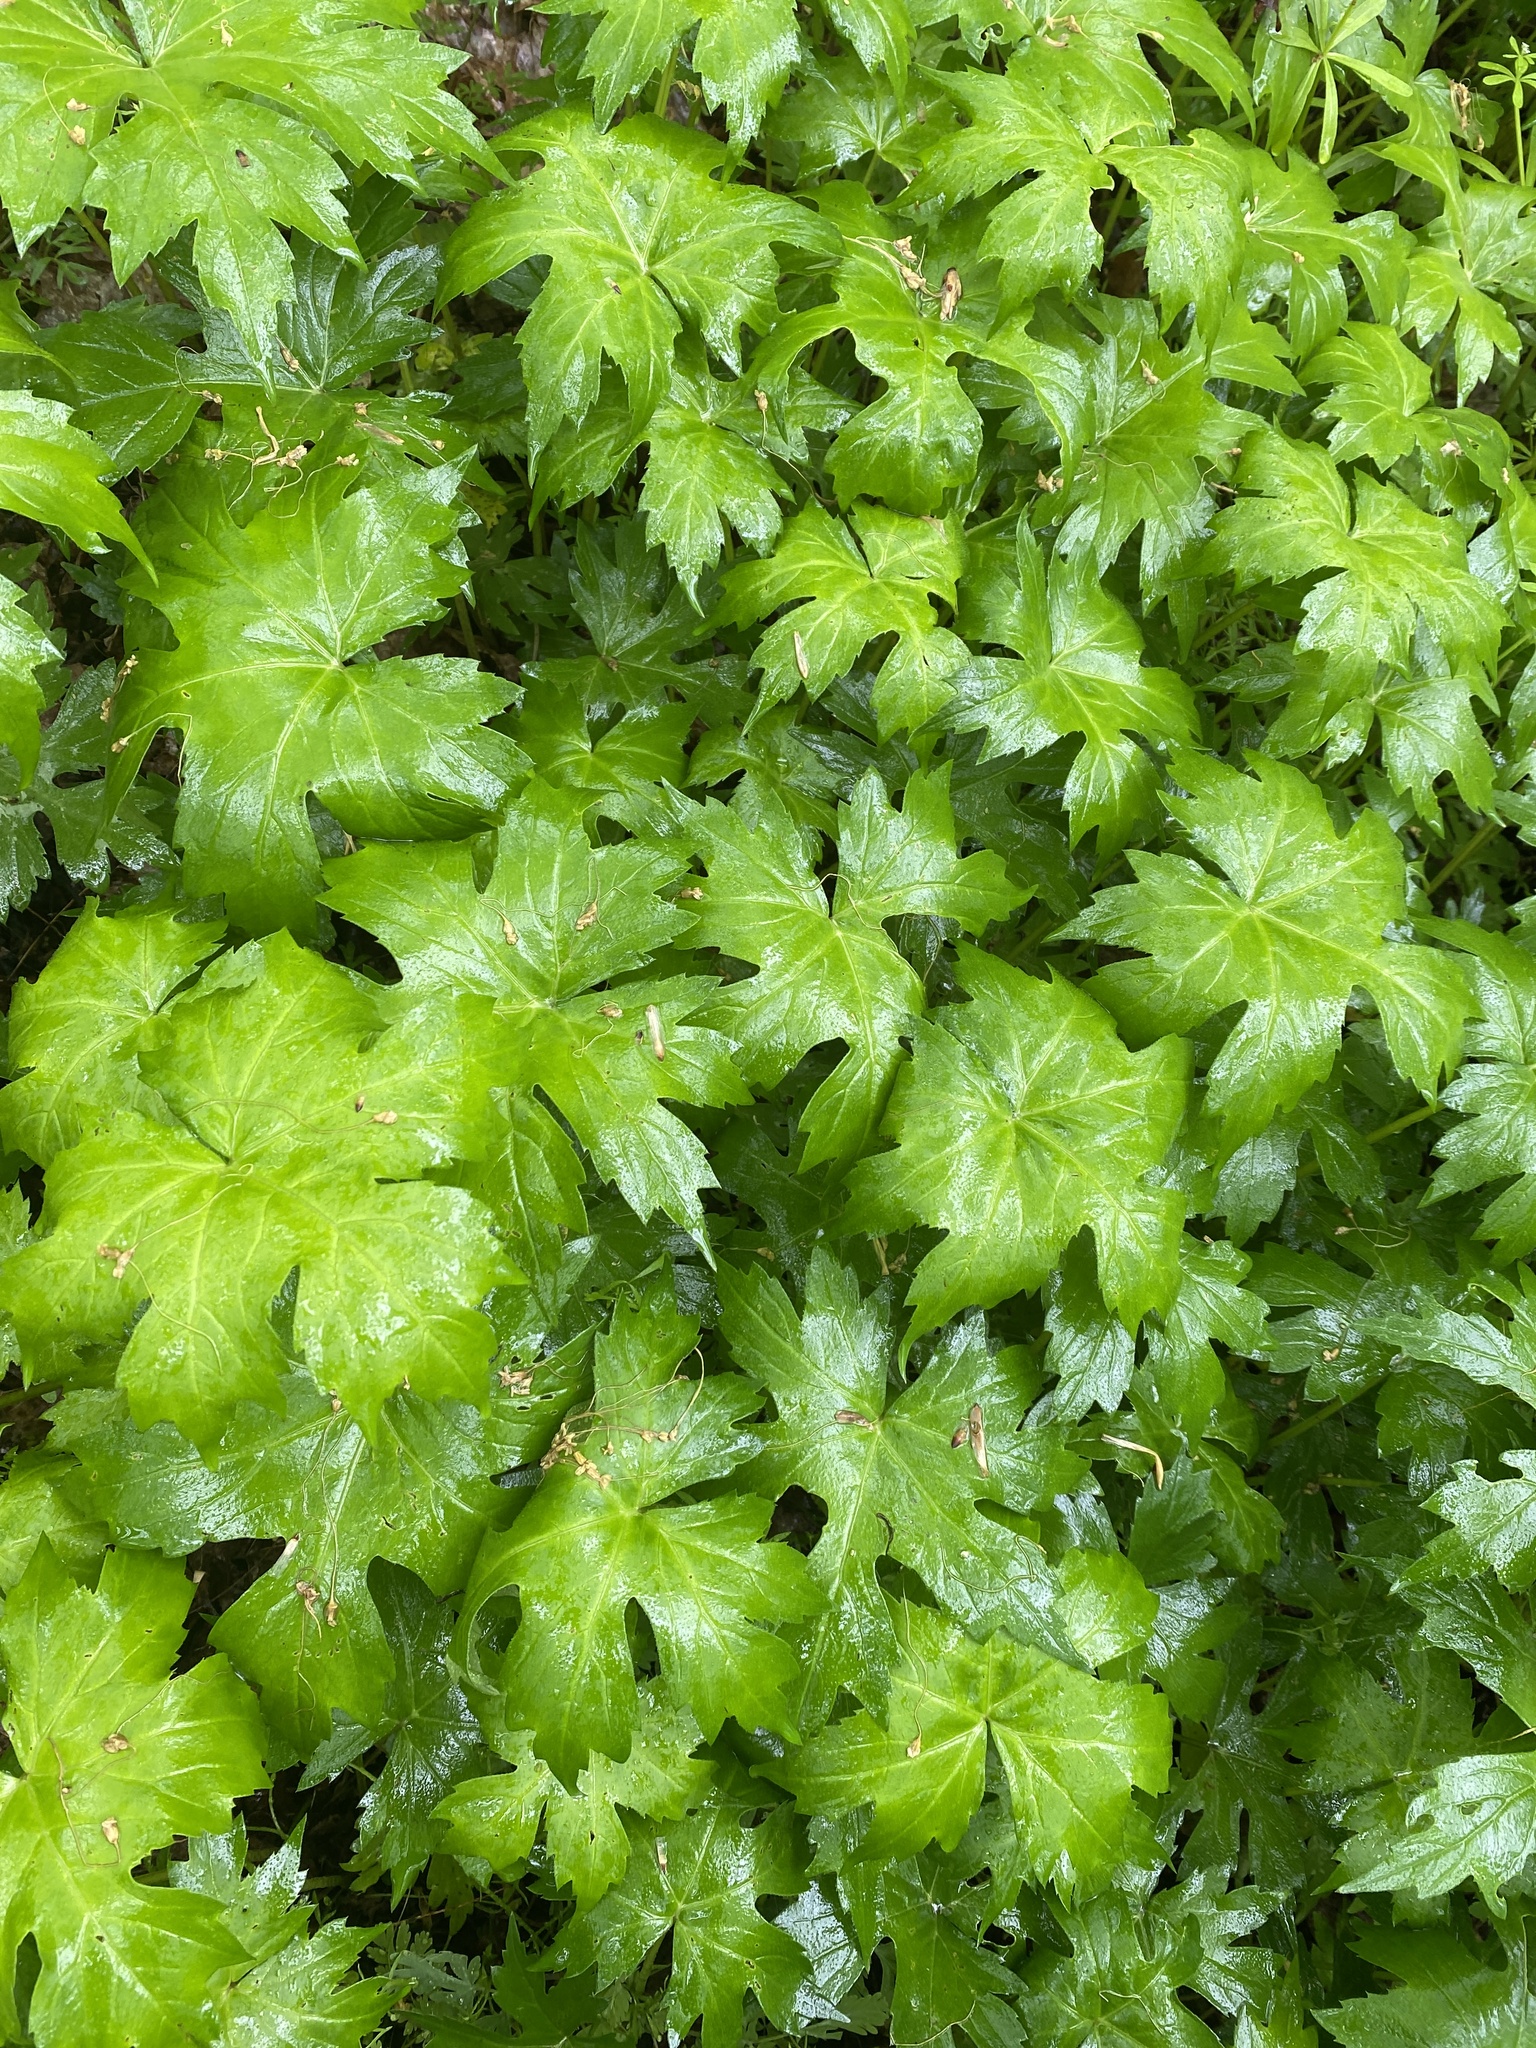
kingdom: Plantae
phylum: Tracheophyta
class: Magnoliopsida
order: Boraginales
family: Hydrophyllaceae
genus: Hydrophyllum
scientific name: Hydrophyllum canadense
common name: Canada waterleaf
